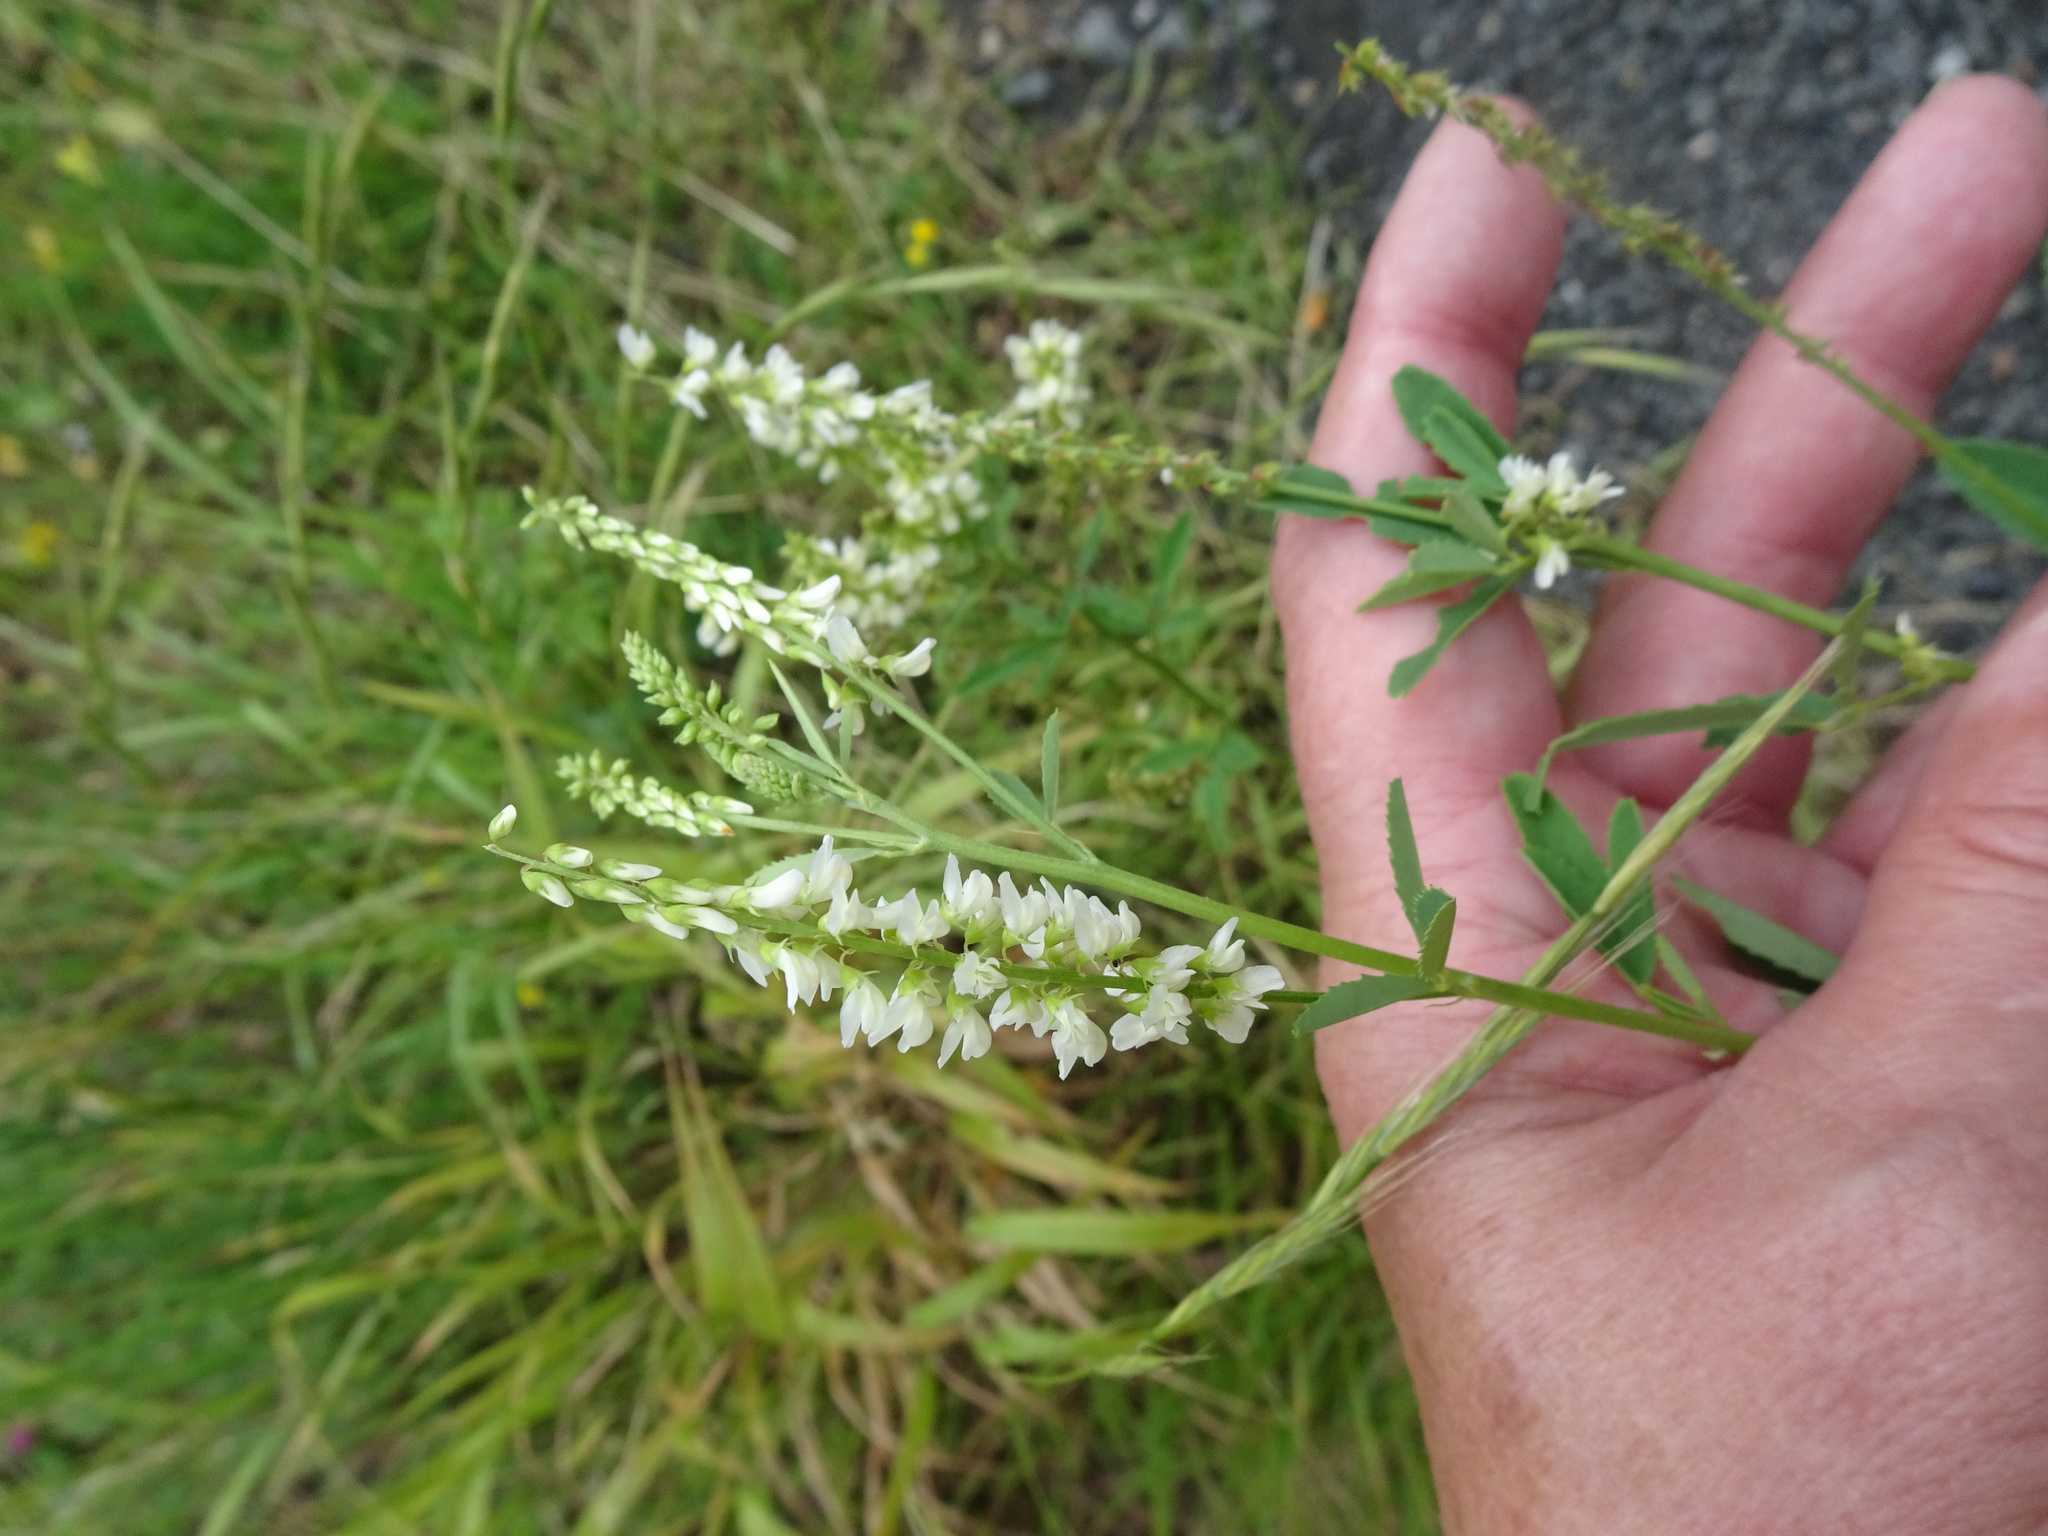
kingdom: Plantae
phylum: Tracheophyta
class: Magnoliopsida
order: Fabales
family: Fabaceae
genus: Melilotus
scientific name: Melilotus albus
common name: White melilot
